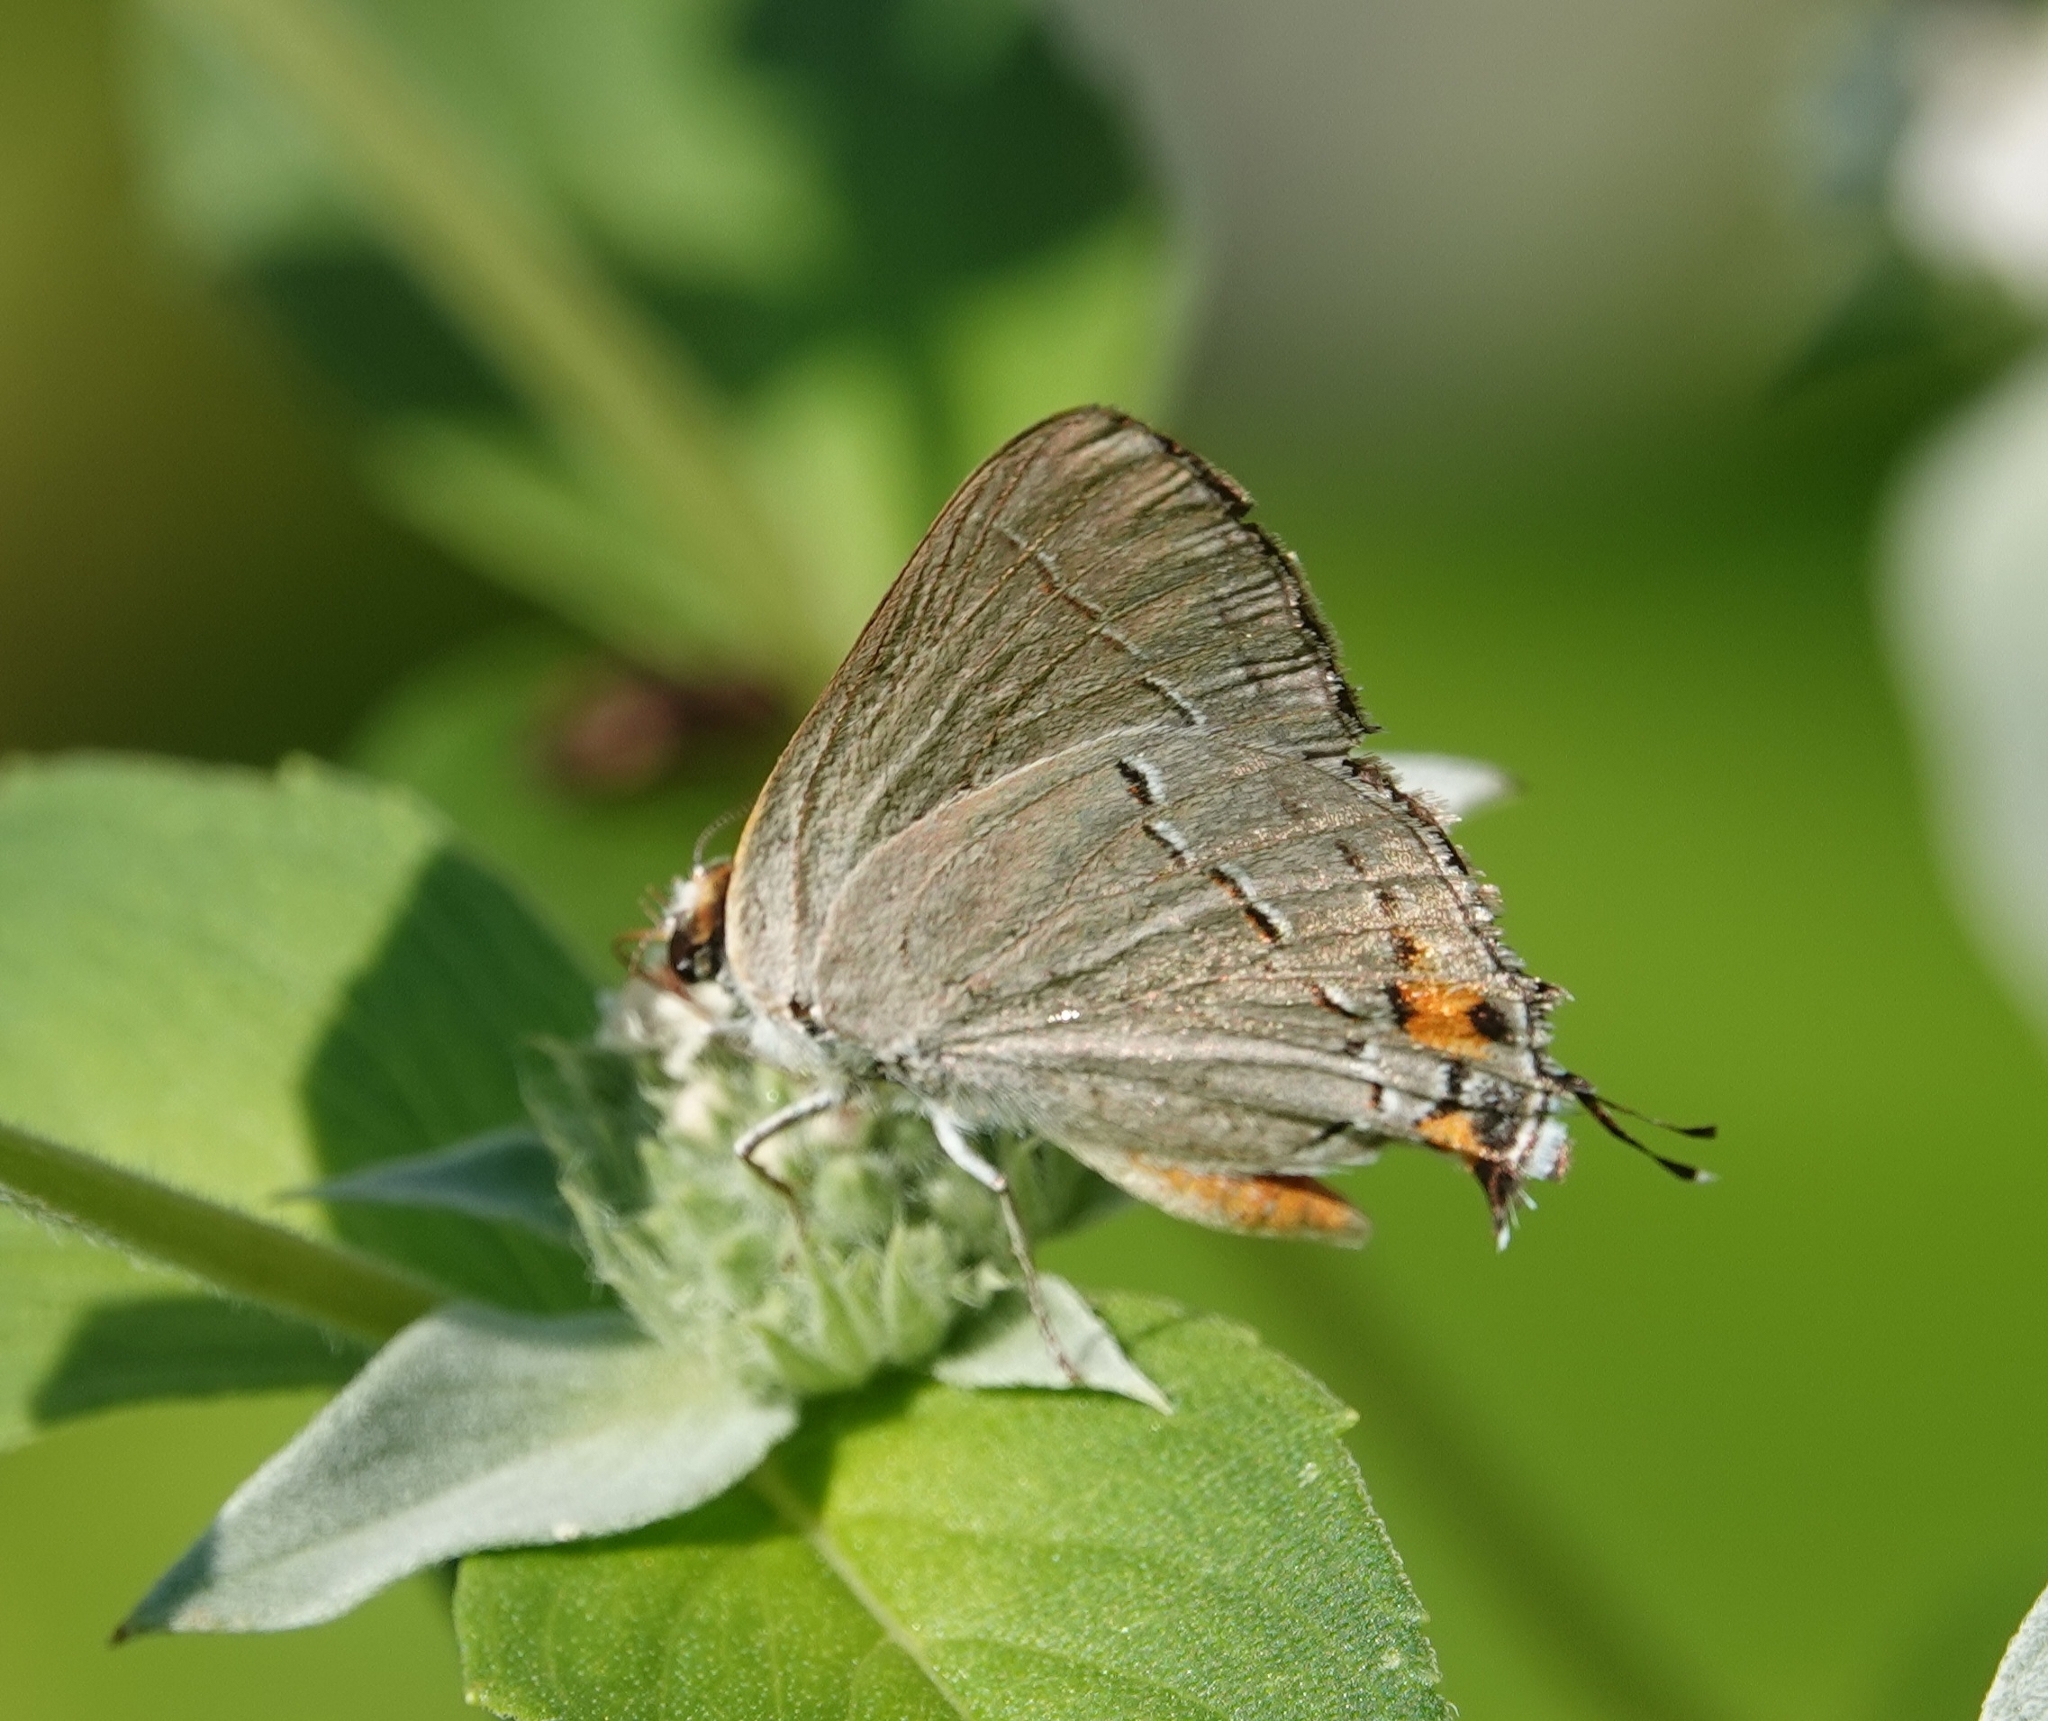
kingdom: Animalia
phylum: Arthropoda
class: Insecta
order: Lepidoptera
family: Lycaenidae
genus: Strymon
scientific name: Strymon melinus
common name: Gray hairstreak
